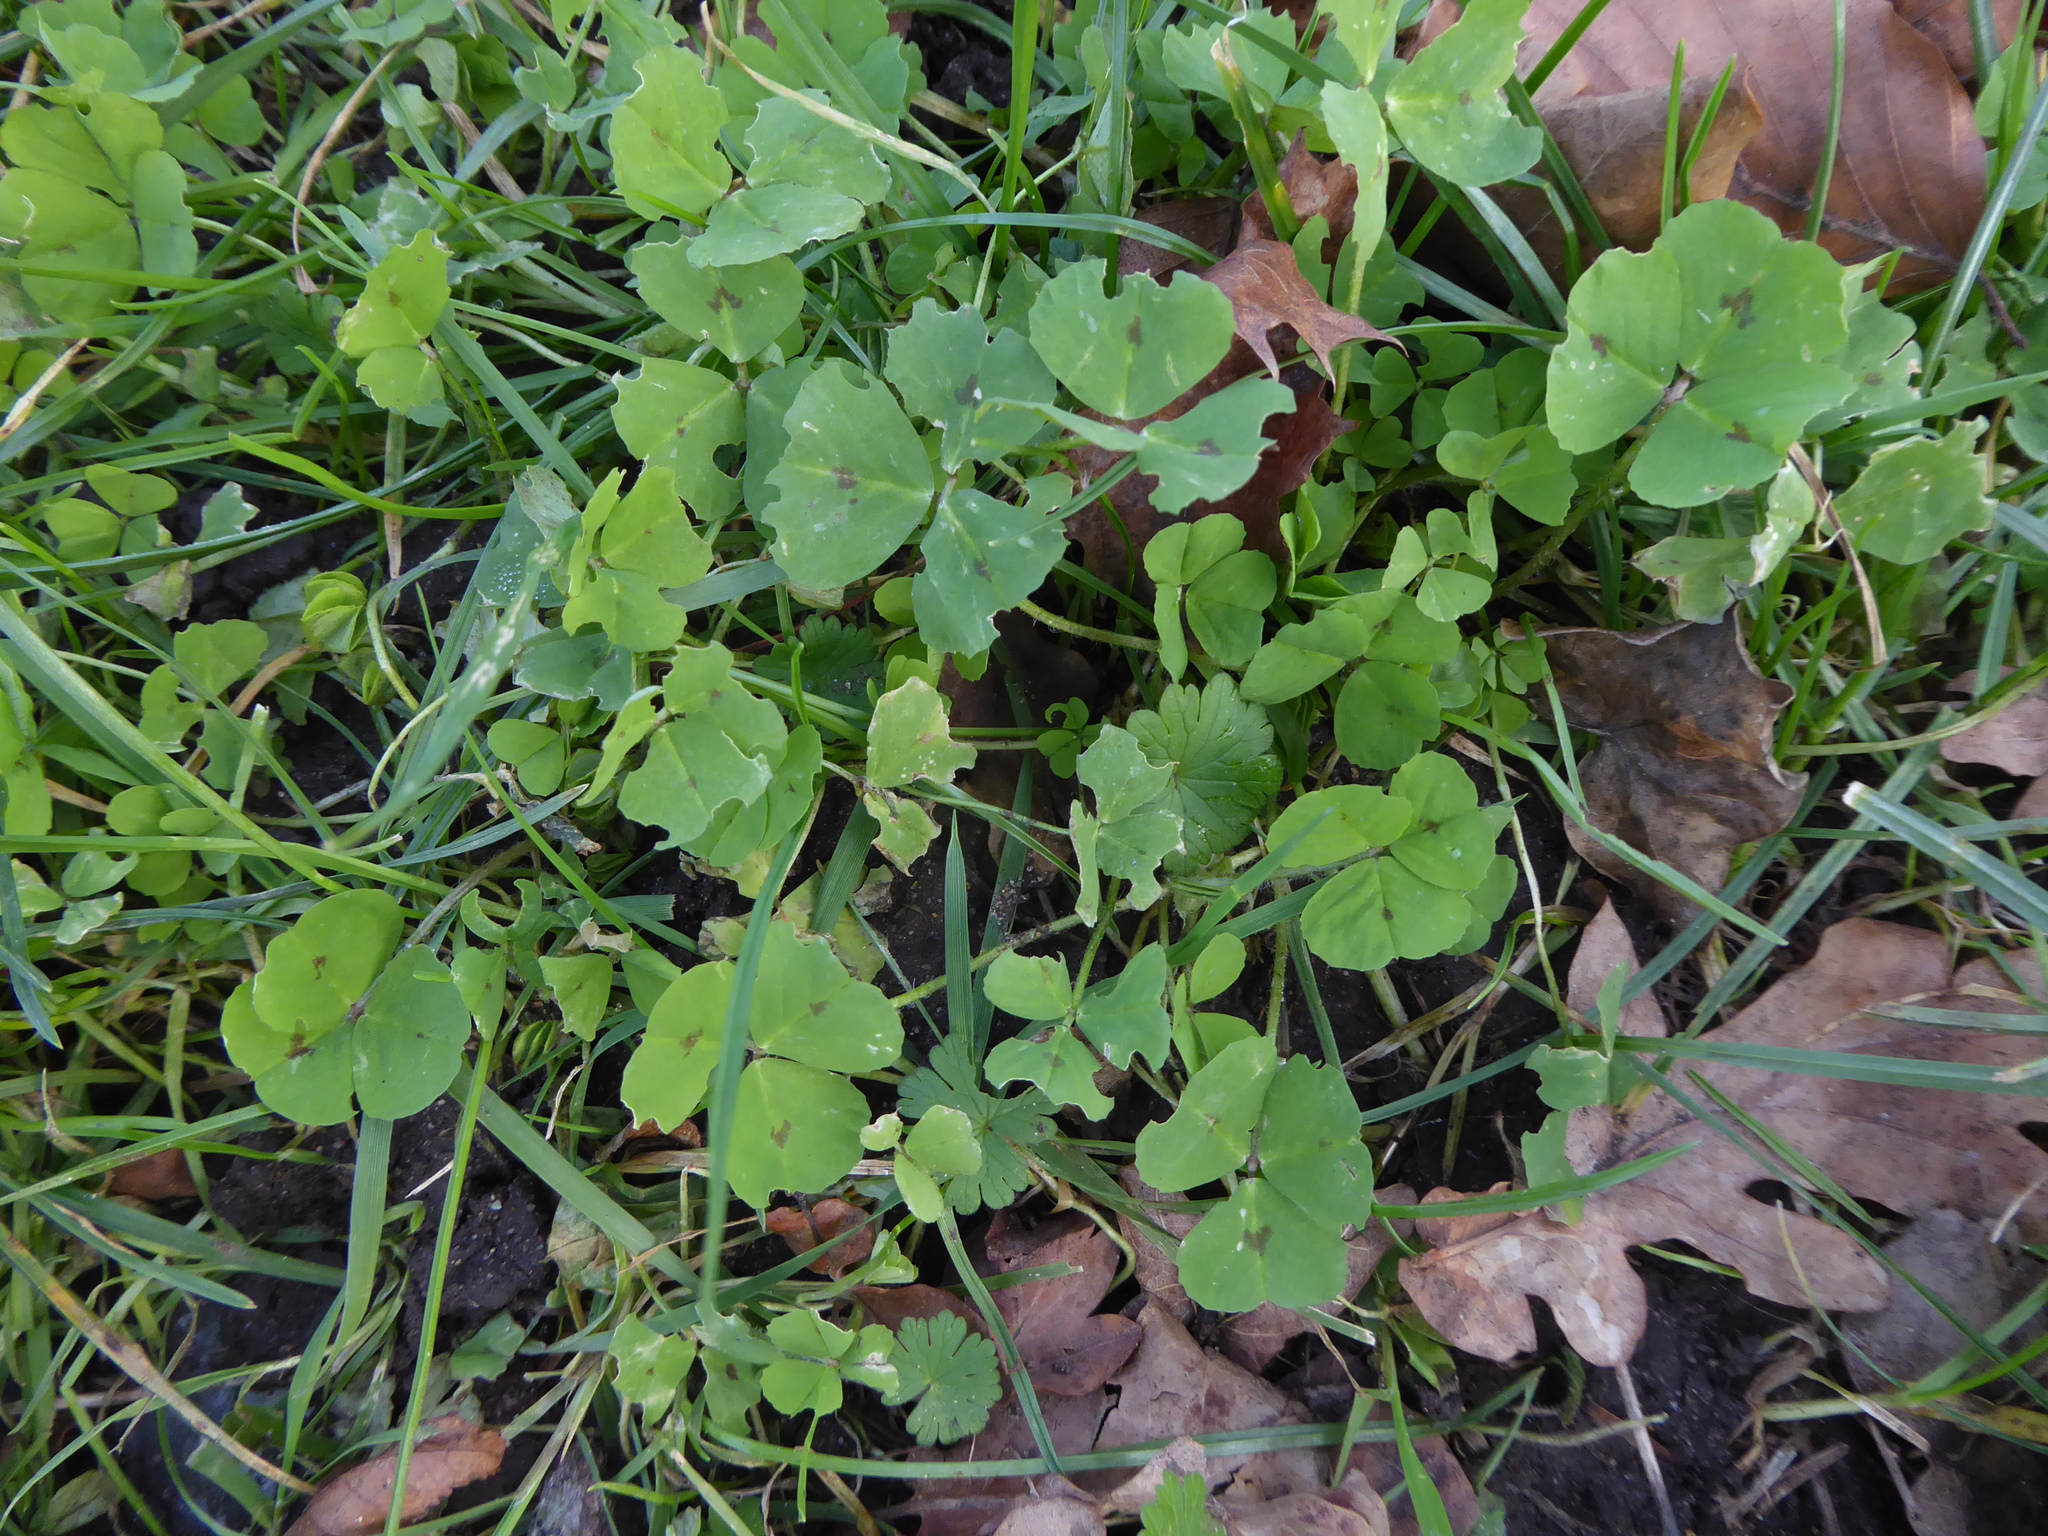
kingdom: Plantae
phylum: Tracheophyta
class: Magnoliopsida
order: Fabales
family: Fabaceae
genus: Medicago
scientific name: Medicago arabica
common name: Spotted medick
